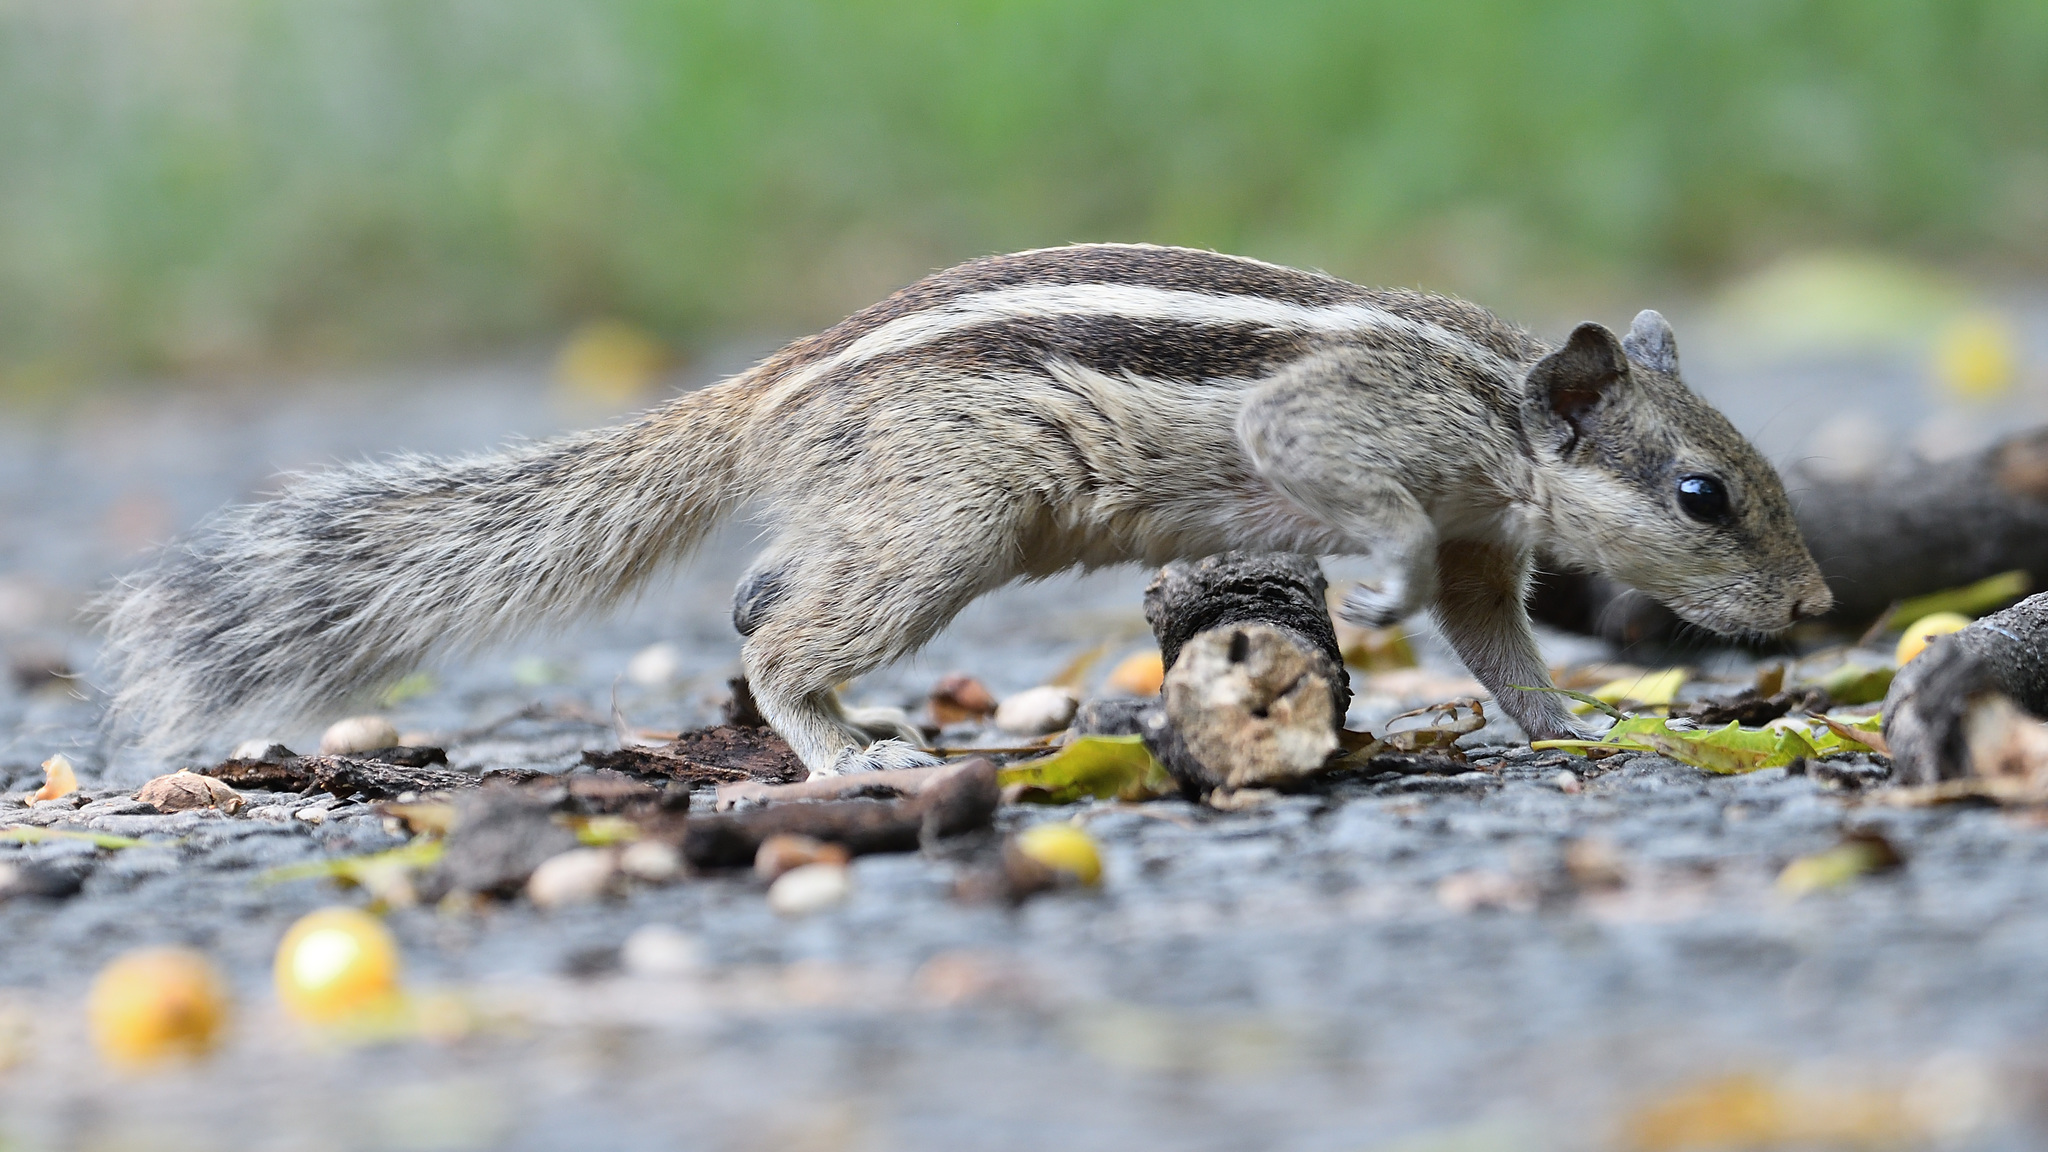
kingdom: Animalia
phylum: Chordata
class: Mammalia
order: Rodentia
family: Sciuridae
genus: Funambulus
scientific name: Funambulus pennantii
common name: Northern palm squirrel
